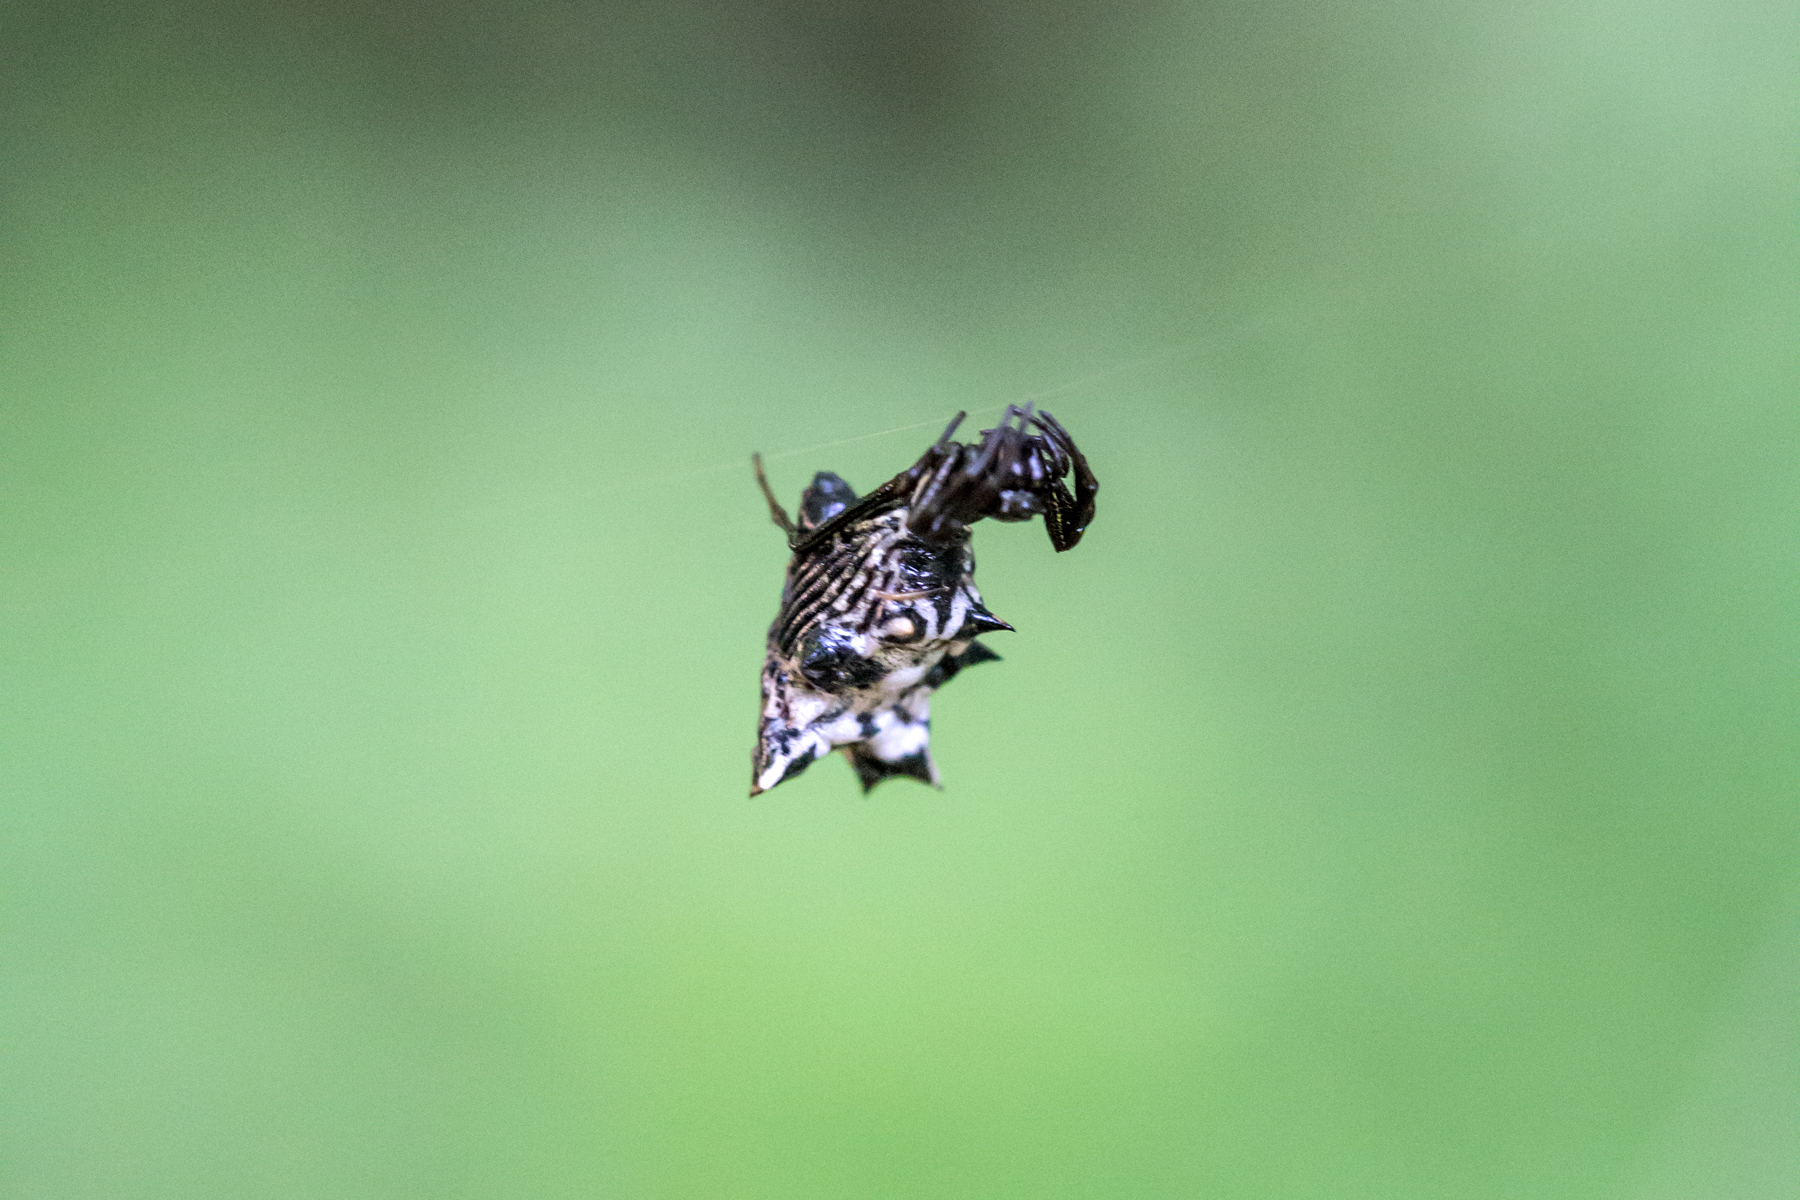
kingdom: Animalia
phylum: Arthropoda
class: Arachnida
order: Araneae
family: Araneidae
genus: Micrathena
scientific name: Micrathena gracilis
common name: Orb weavers
